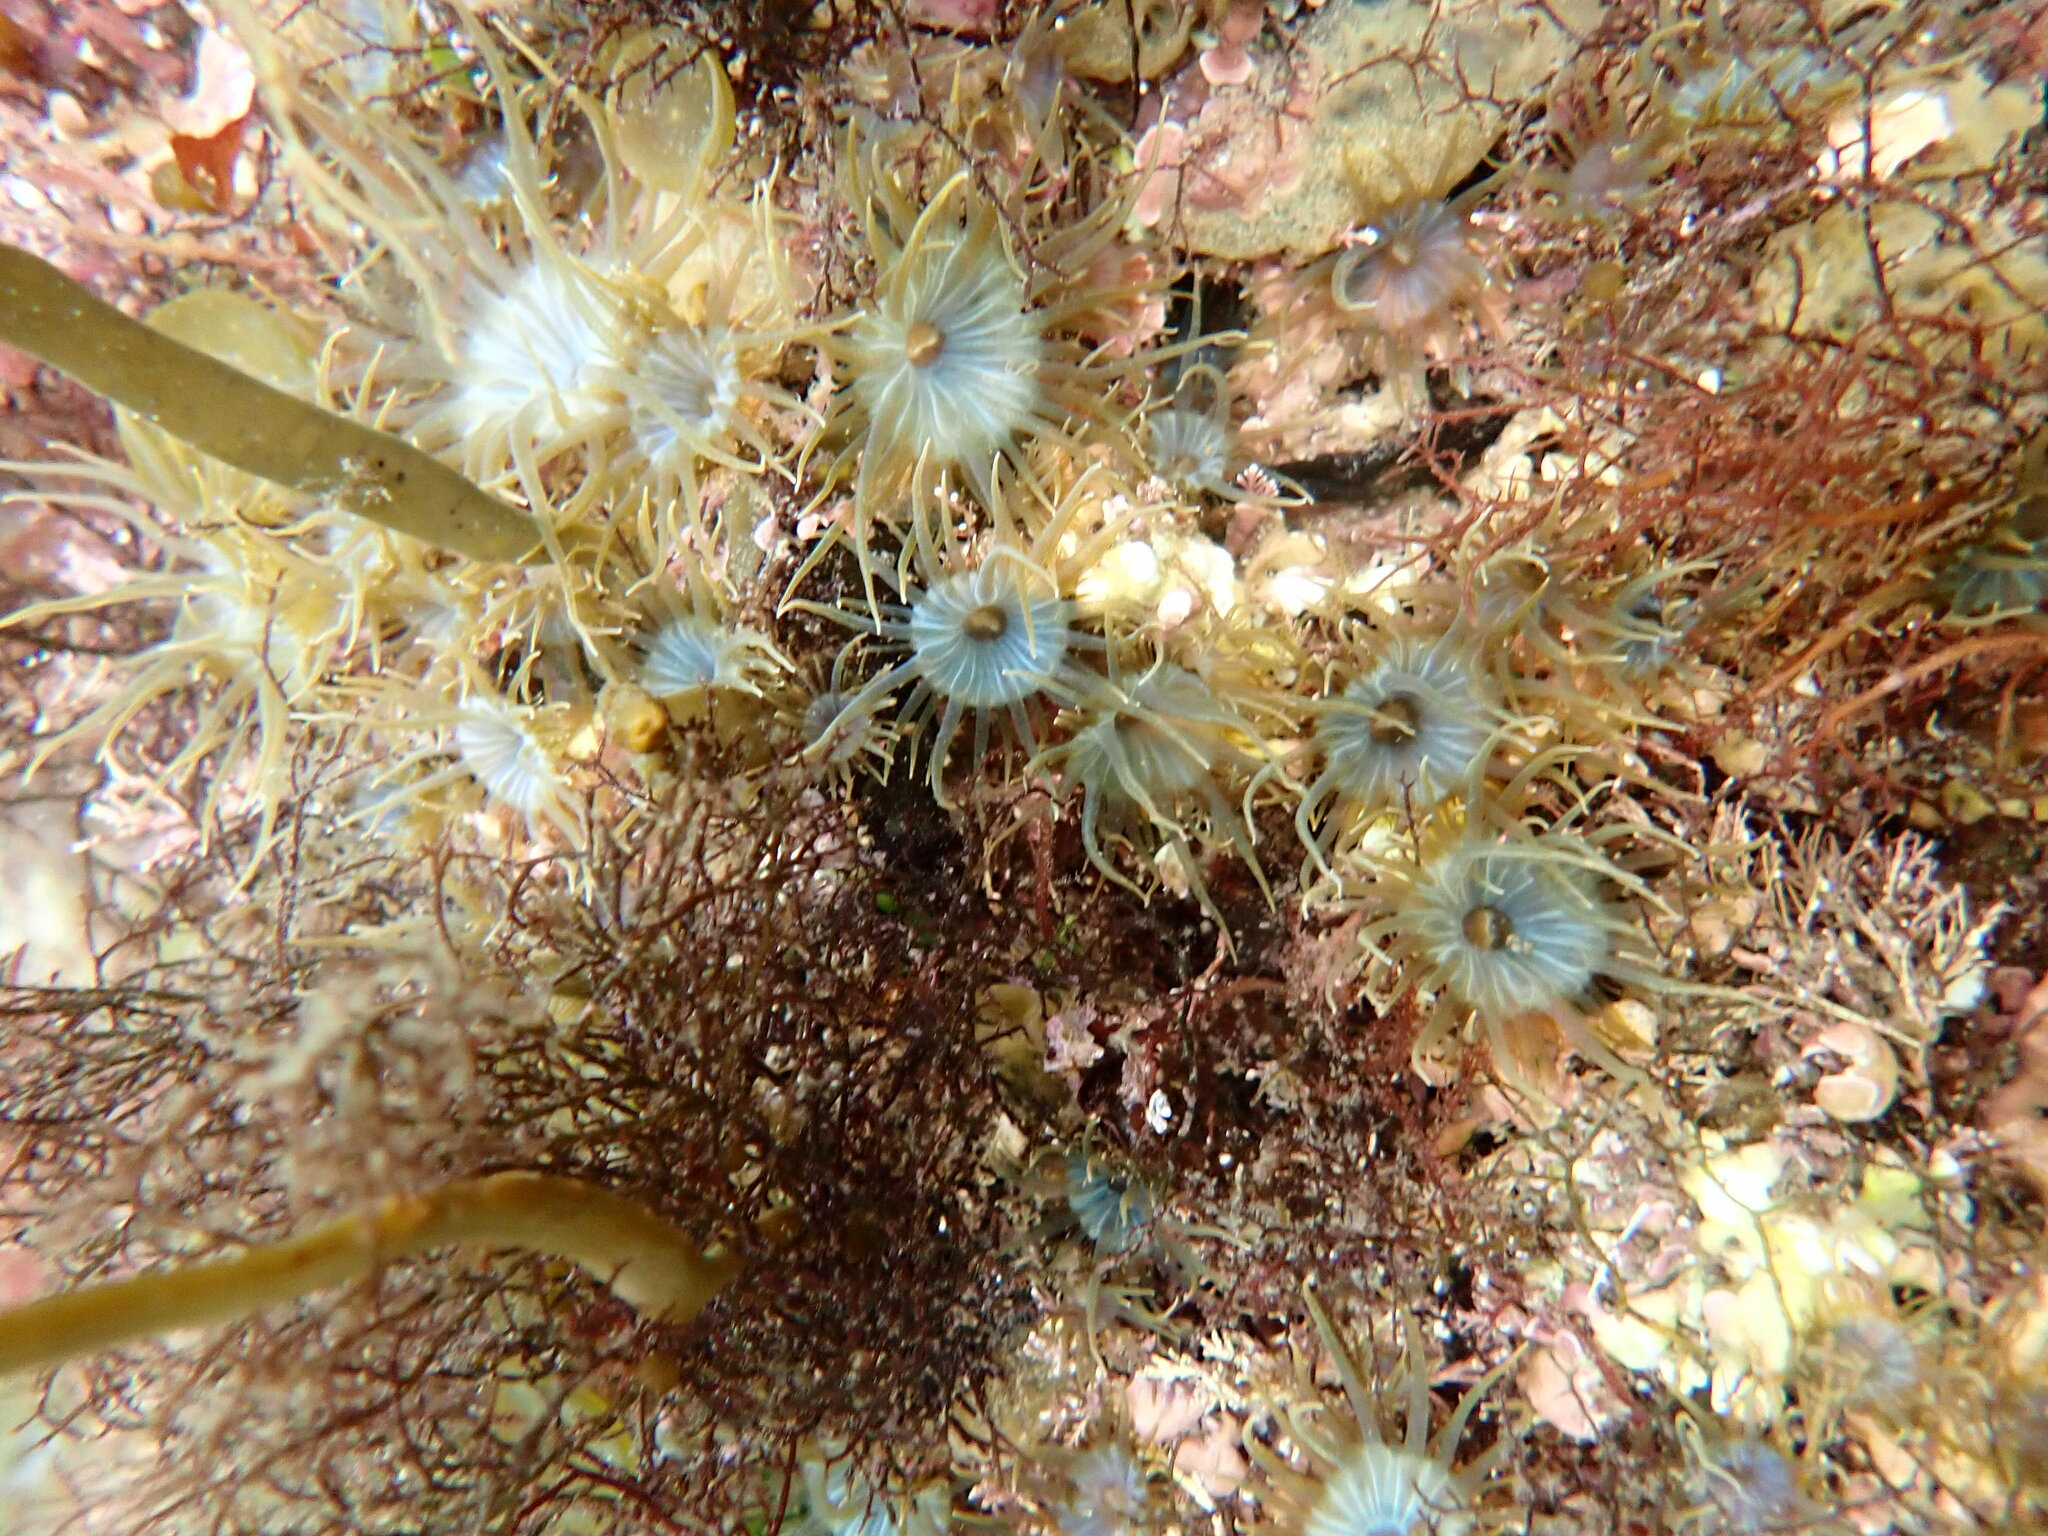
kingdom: Animalia
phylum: Cnidaria
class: Anthozoa
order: Actiniaria
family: Aiptasiidae
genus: Aiptasia
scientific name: Aiptasia couchii
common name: Trumpet anemone
